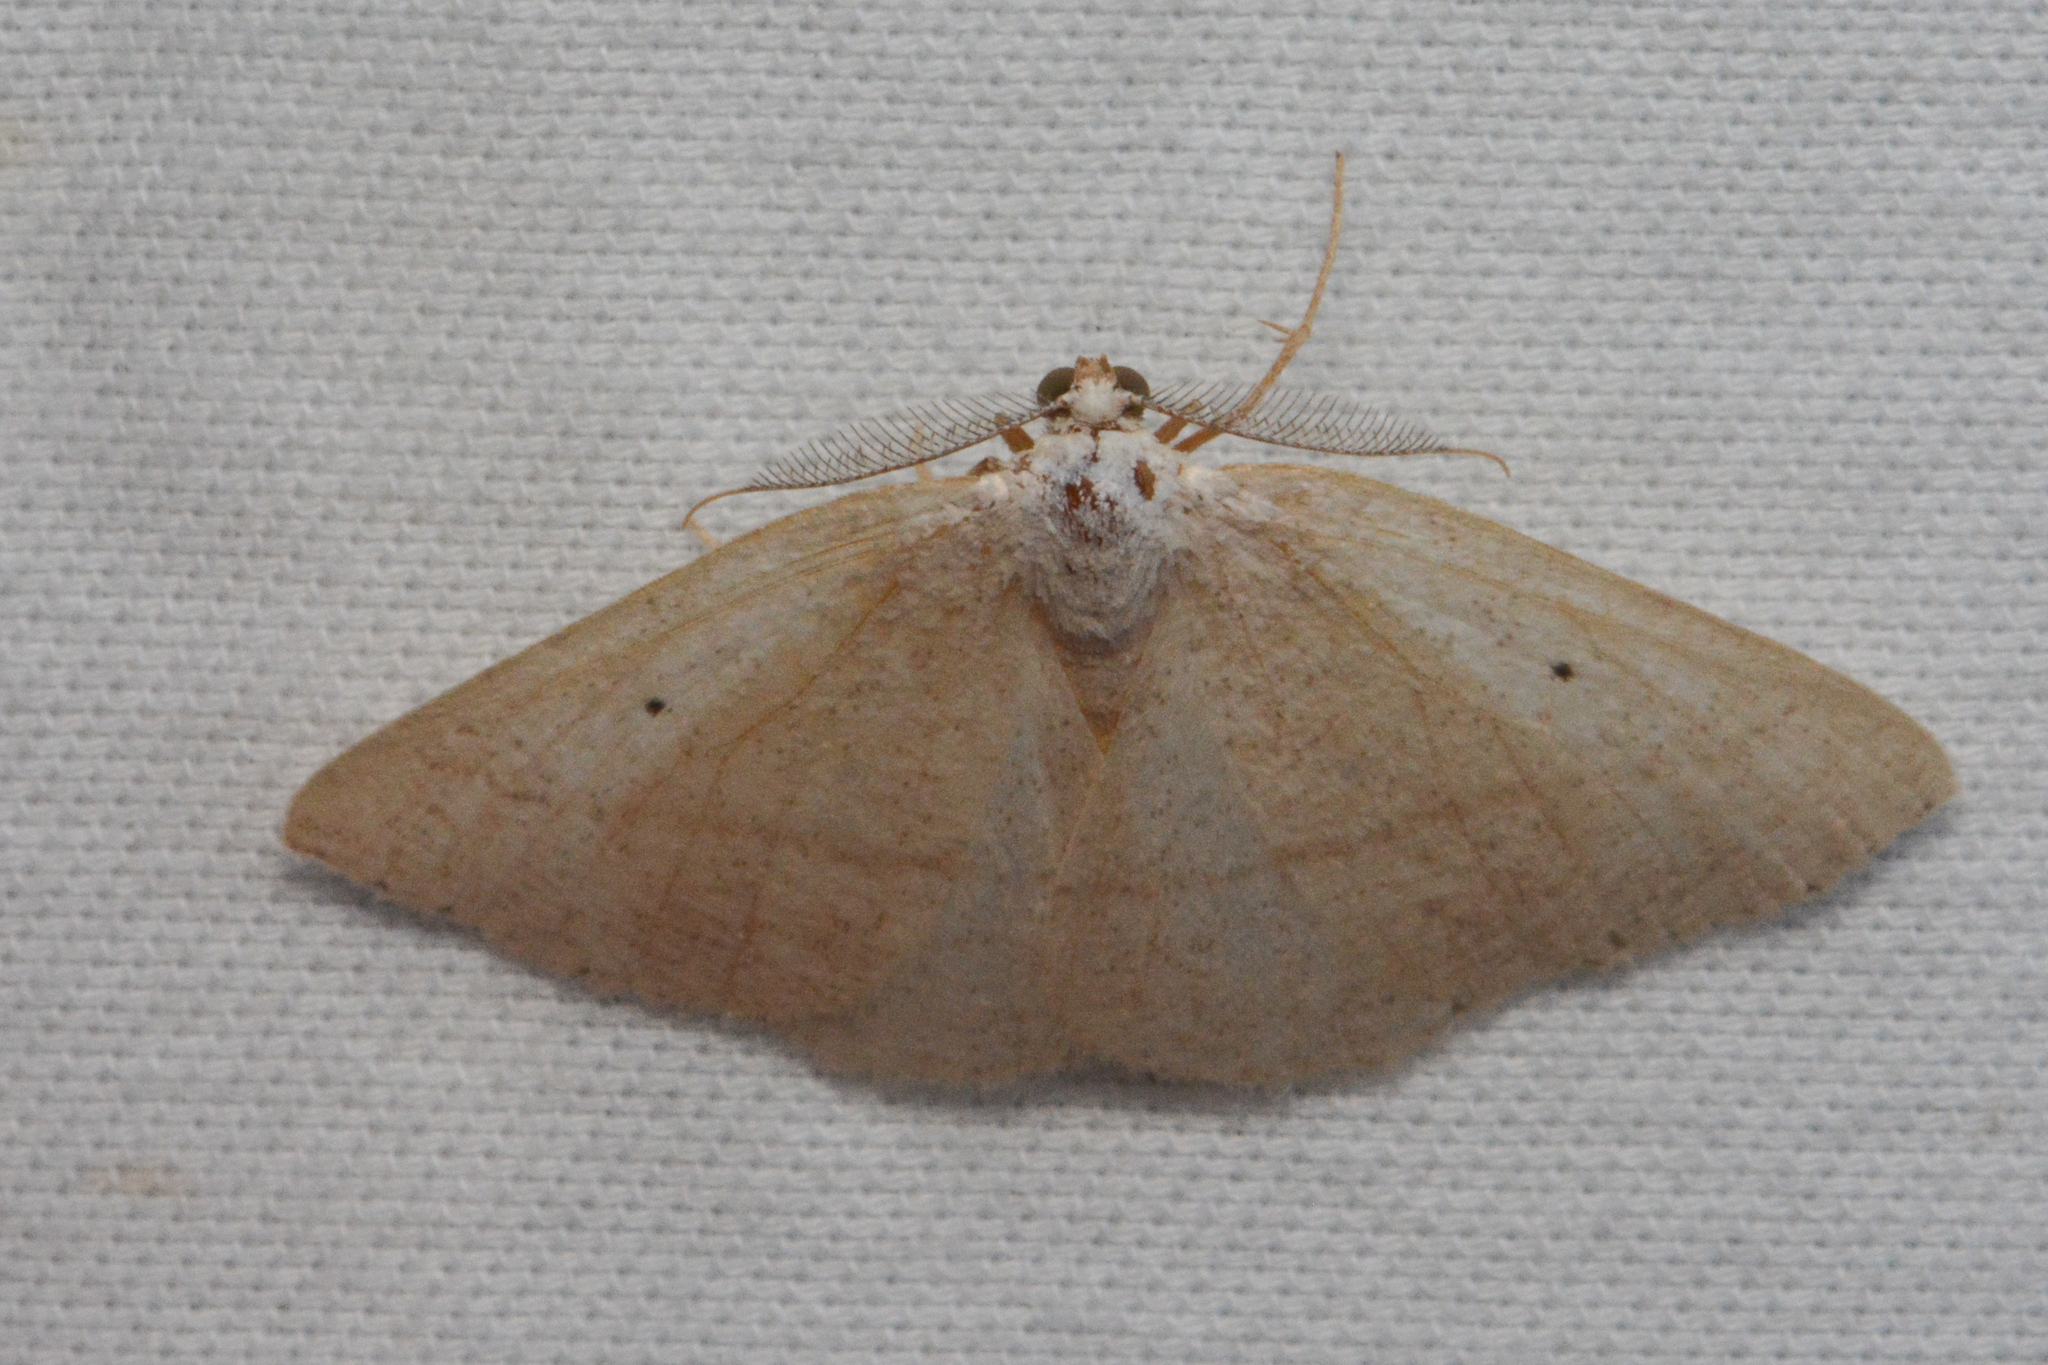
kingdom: Animalia
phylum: Arthropoda
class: Insecta
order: Lepidoptera
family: Geometridae
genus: Eudrepanulatrix
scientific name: Eudrepanulatrix rectifascia
